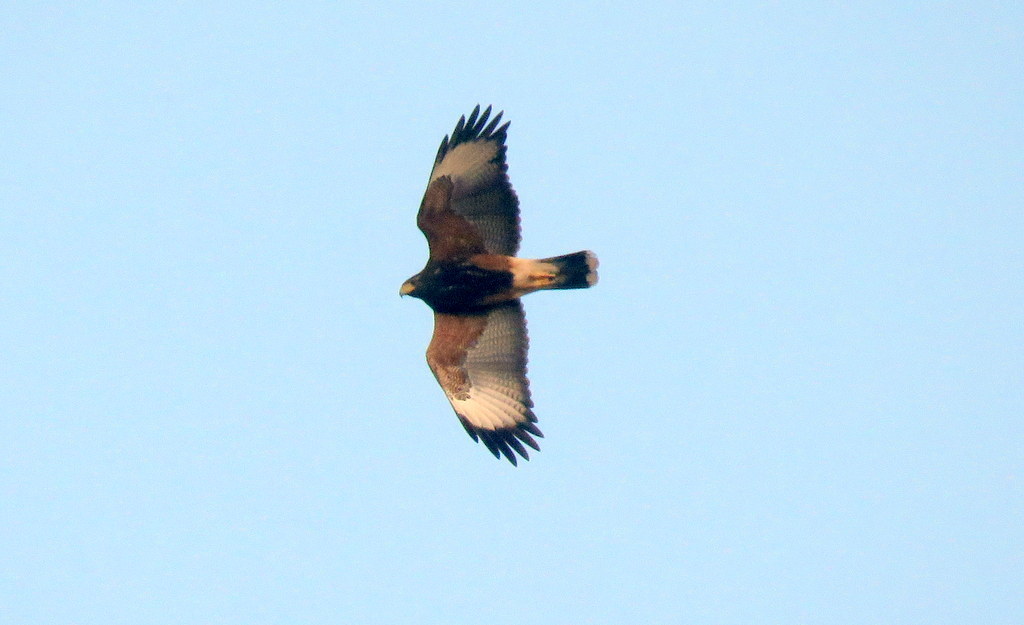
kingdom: Animalia
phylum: Chordata
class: Aves
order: Accipitriformes
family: Accipitridae
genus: Parabuteo
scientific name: Parabuteo unicinctus
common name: Harris's hawk
